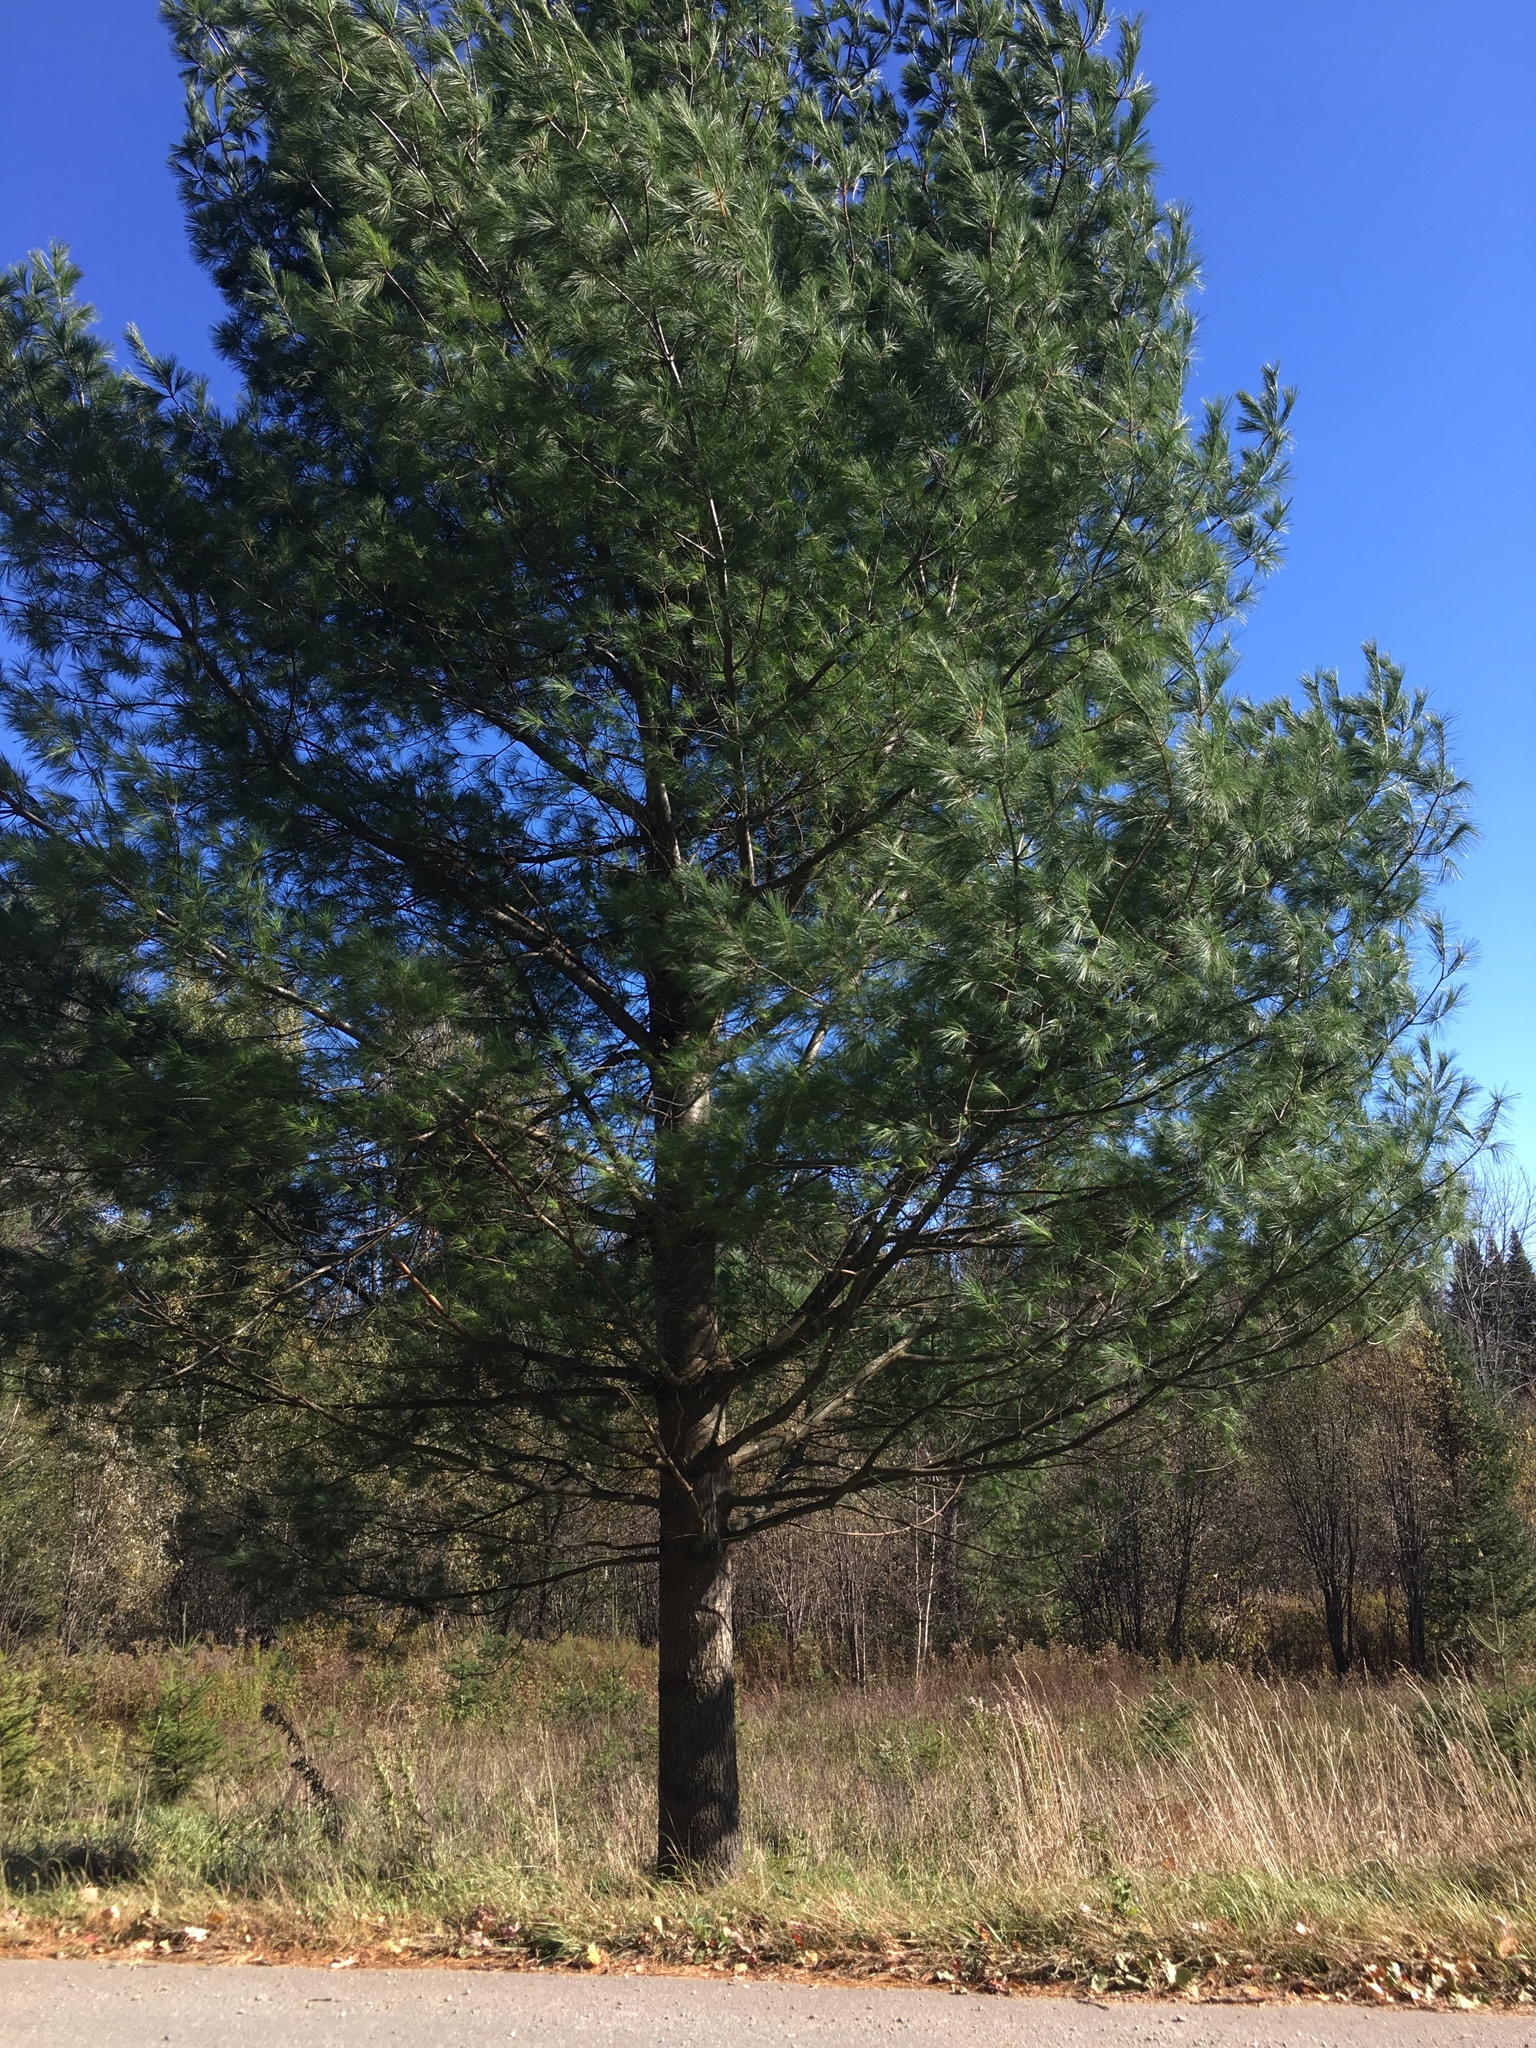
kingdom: Plantae
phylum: Tracheophyta
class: Pinopsida
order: Pinales
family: Pinaceae
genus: Pinus
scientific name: Pinus strobus
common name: Weymouth pine
